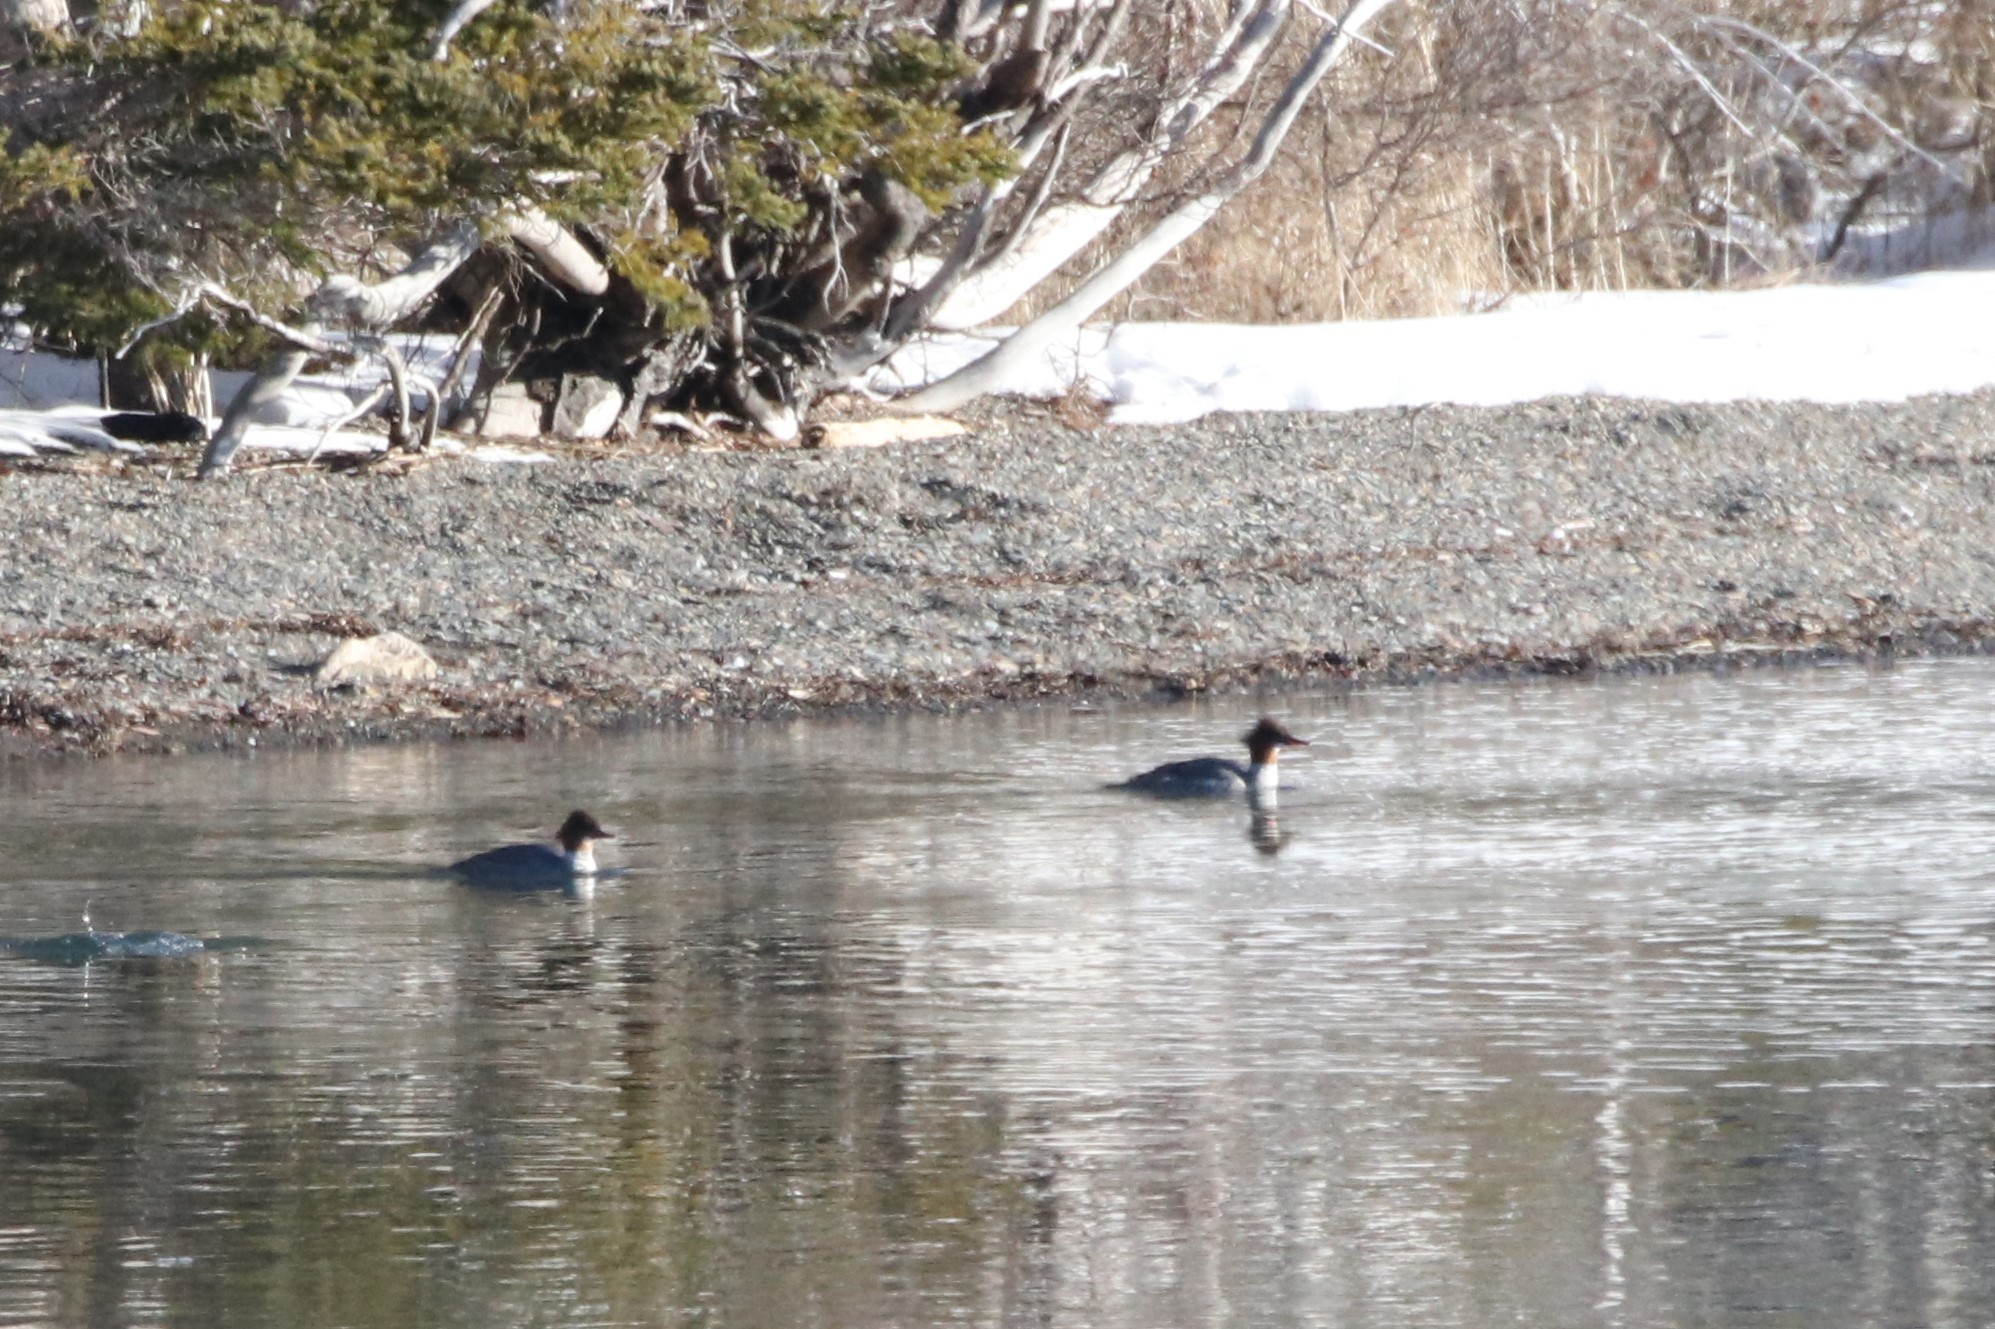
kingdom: Animalia
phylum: Chordata
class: Aves
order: Anseriformes
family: Anatidae
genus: Mergus
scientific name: Mergus merganser
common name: Common merganser
